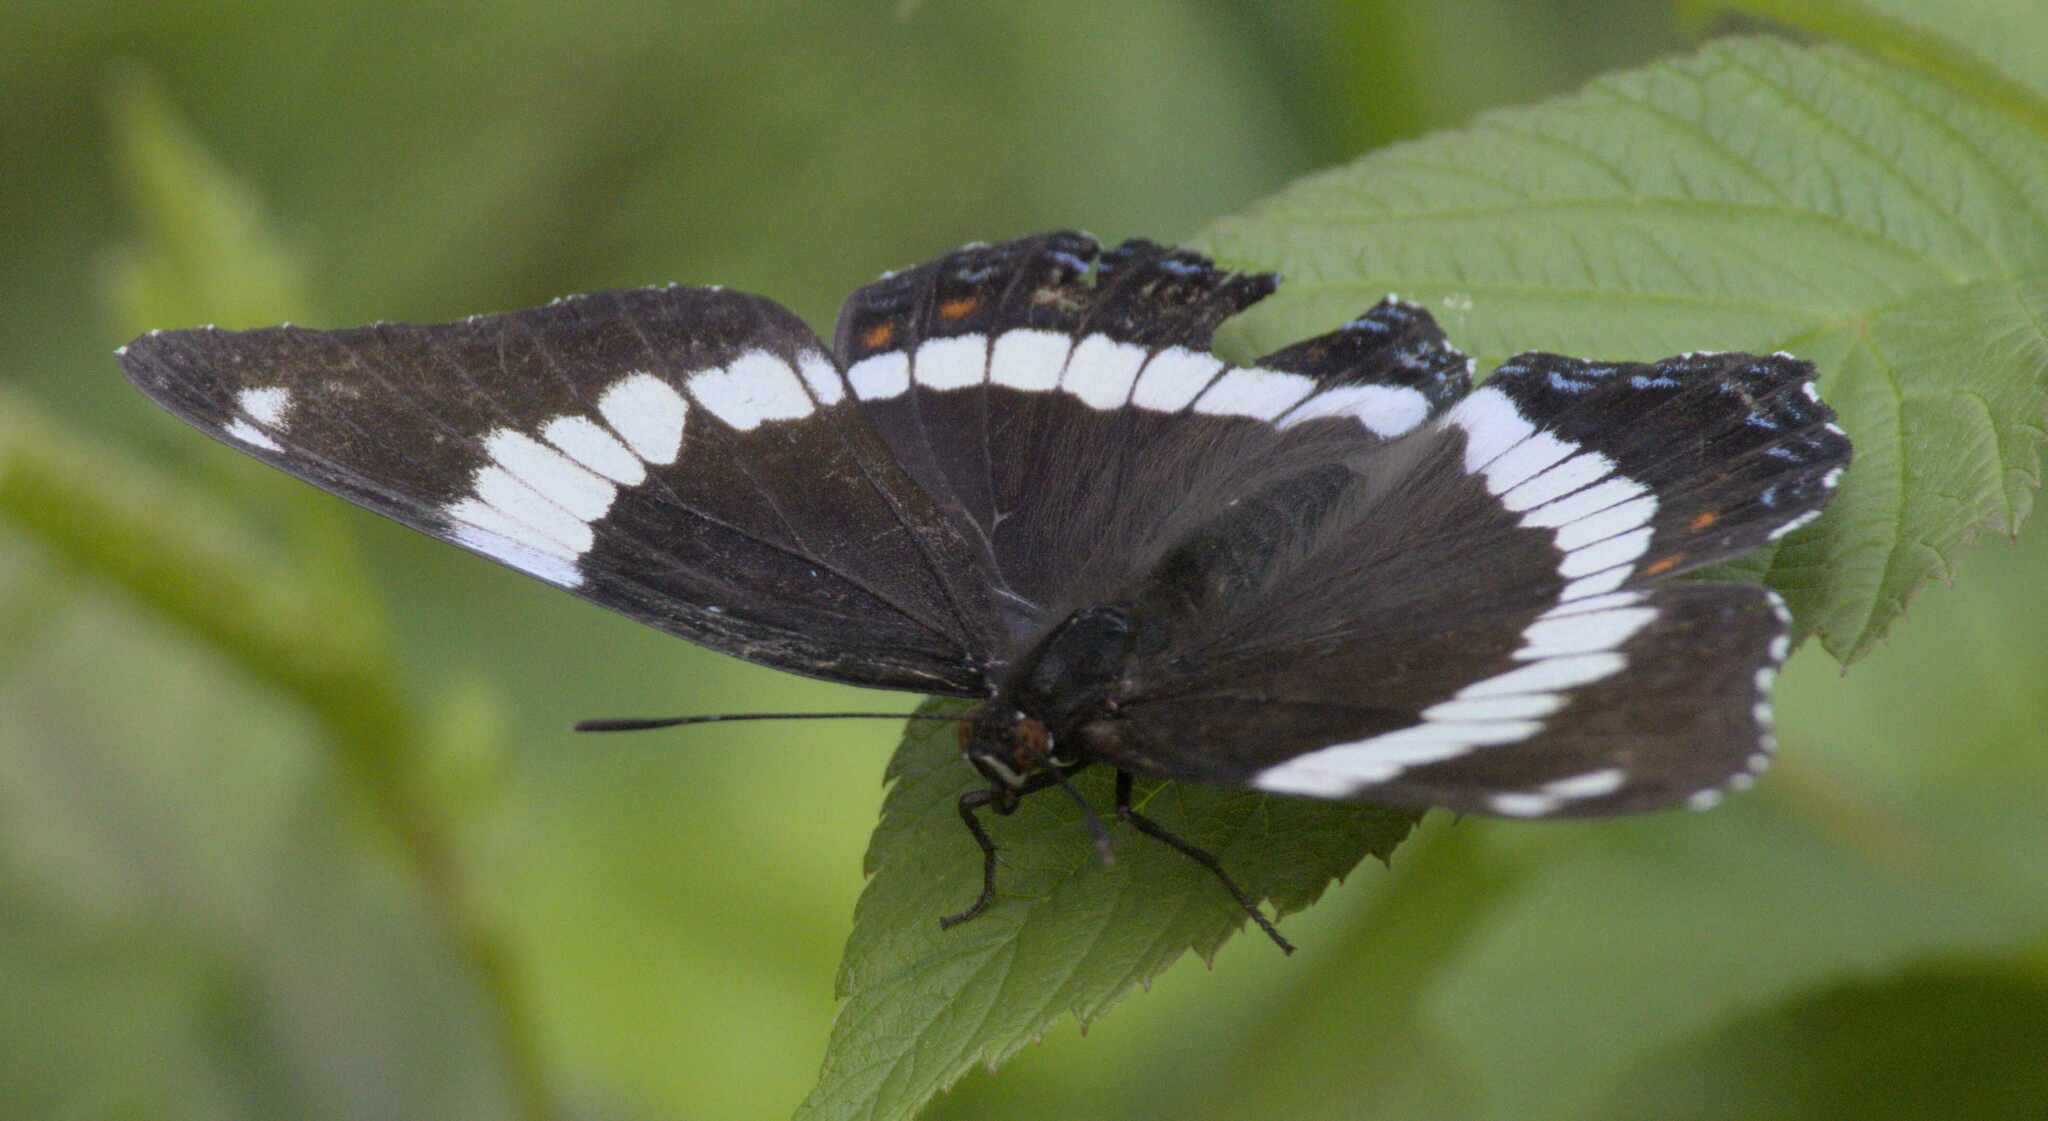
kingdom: Animalia
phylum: Arthropoda
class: Insecta
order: Lepidoptera
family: Nymphalidae
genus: Limenitis
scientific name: Limenitis arthemis
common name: Red-spotted admiral
